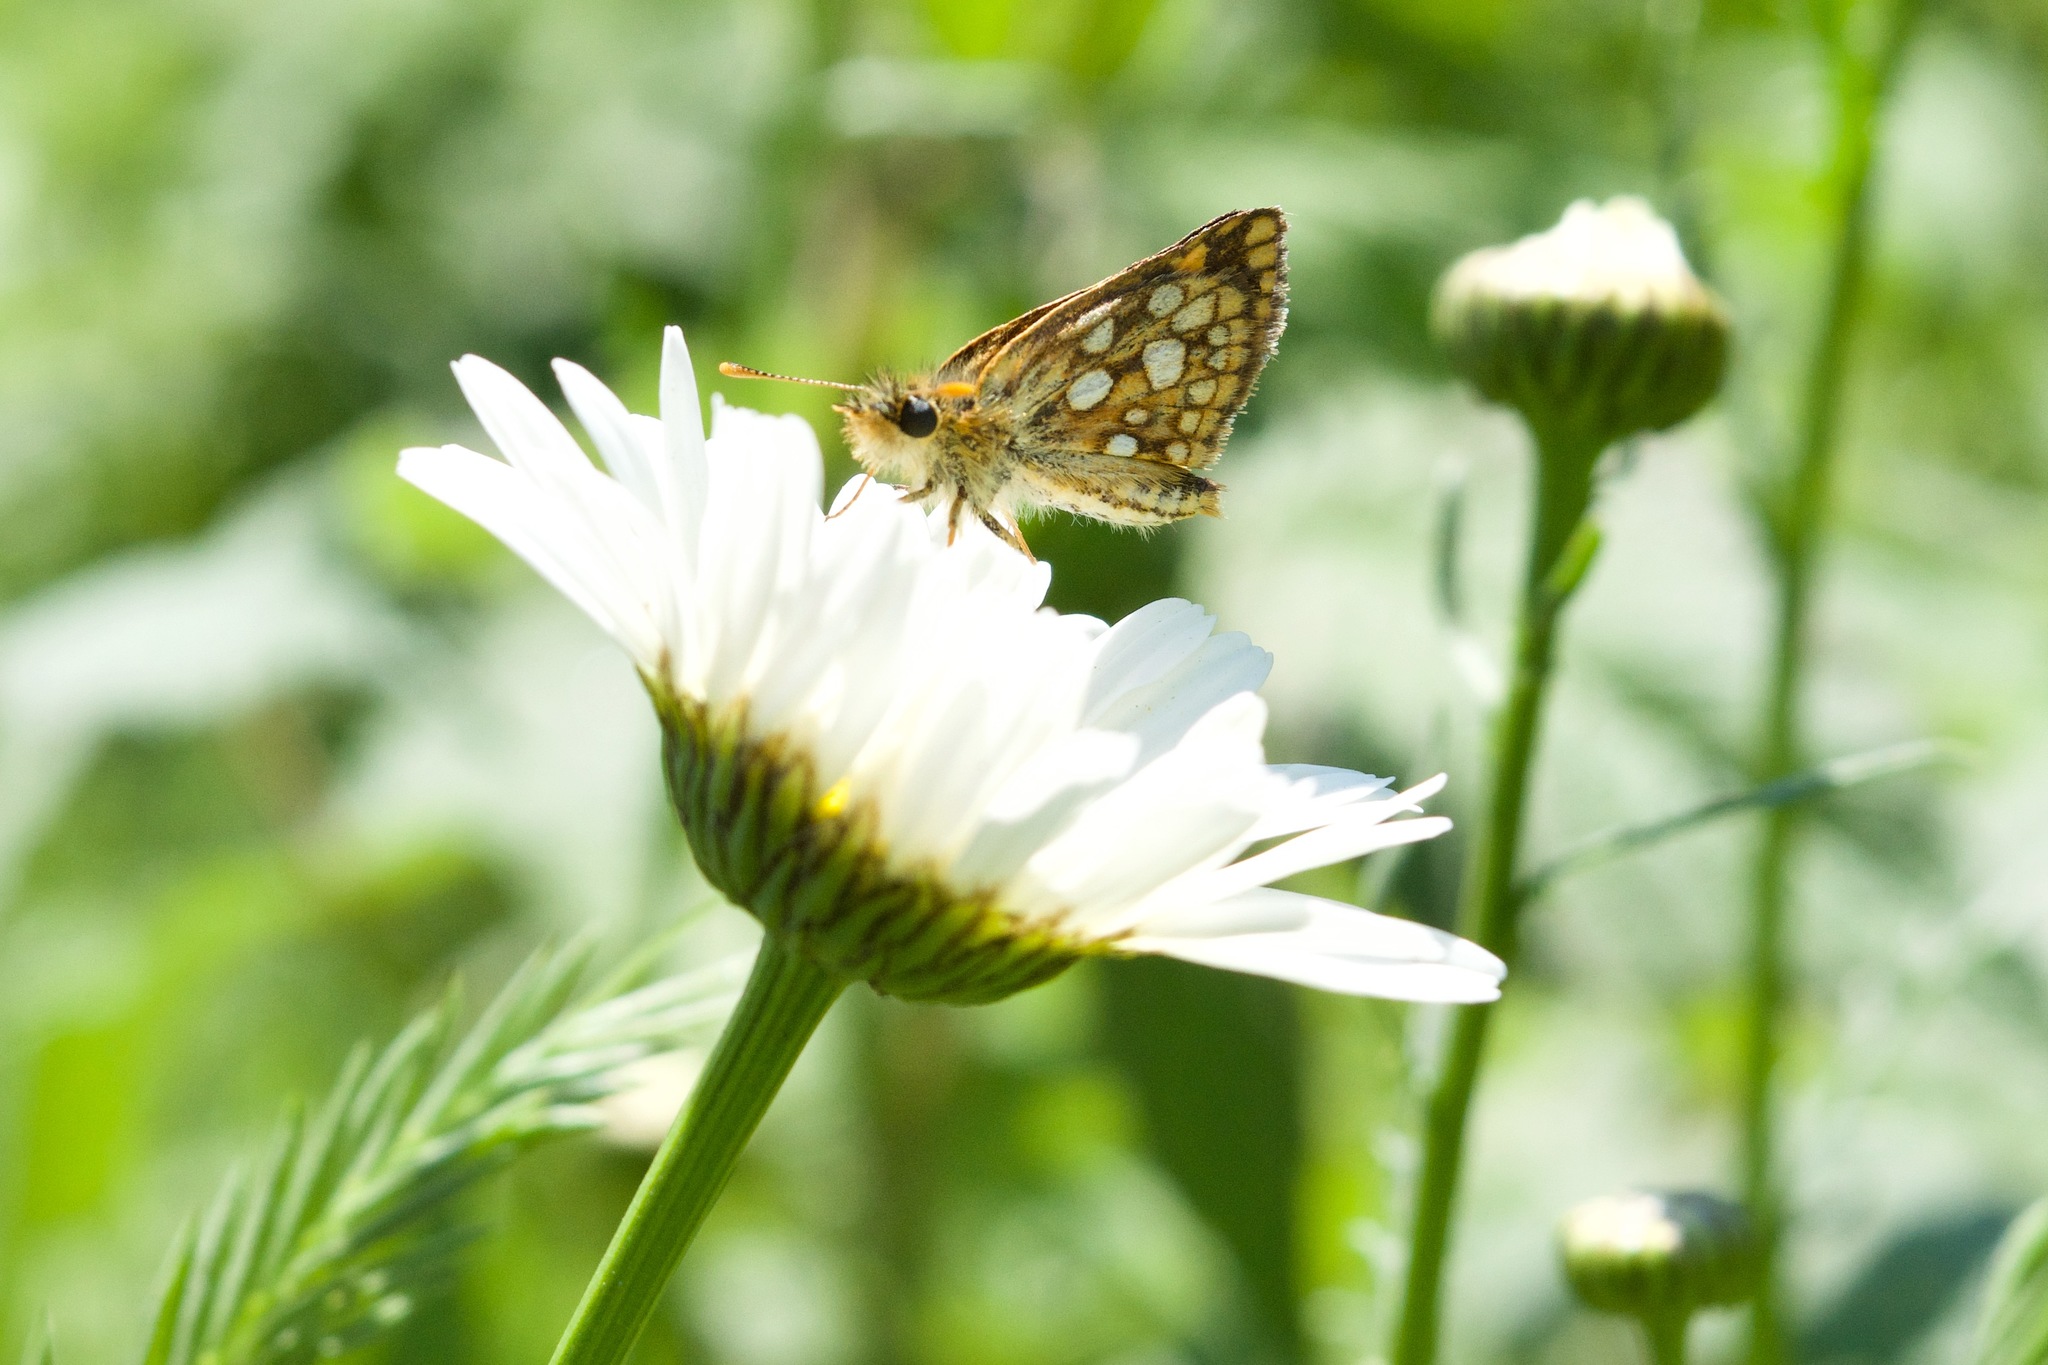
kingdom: Animalia
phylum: Arthropoda
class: Insecta
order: Lepidoptera
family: Hesperiidae
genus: Carterocephalus
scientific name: Carterocephalus mandan
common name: Arctic skipperling
